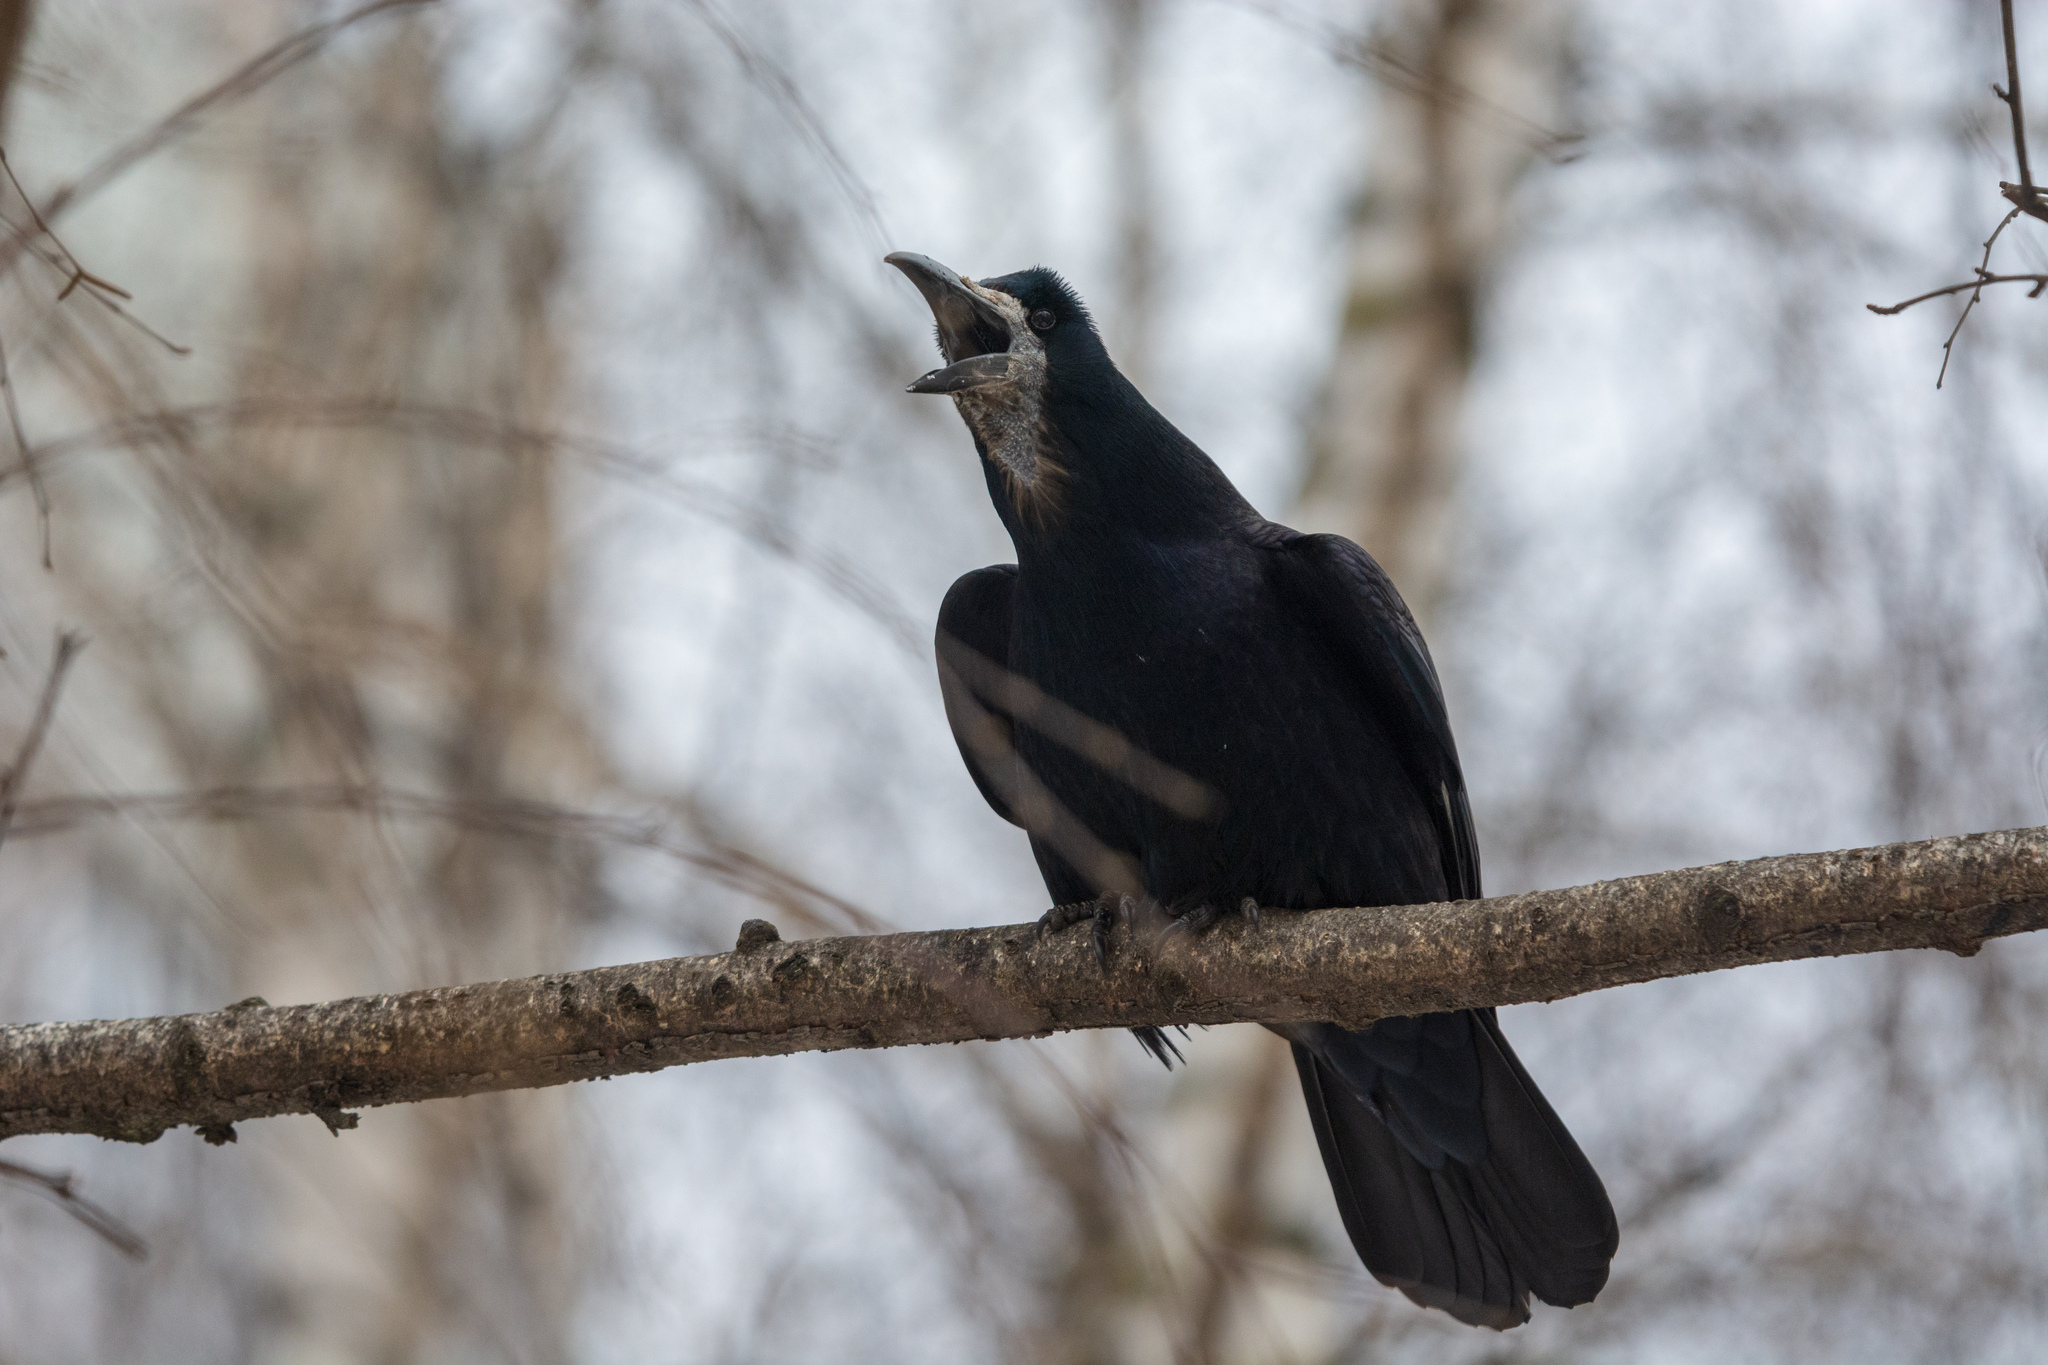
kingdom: Animalia
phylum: Chordata
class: Aves
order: Passeriformes
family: Corvidae
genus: Corvus
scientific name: Corvus frugilegus
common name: Rook
